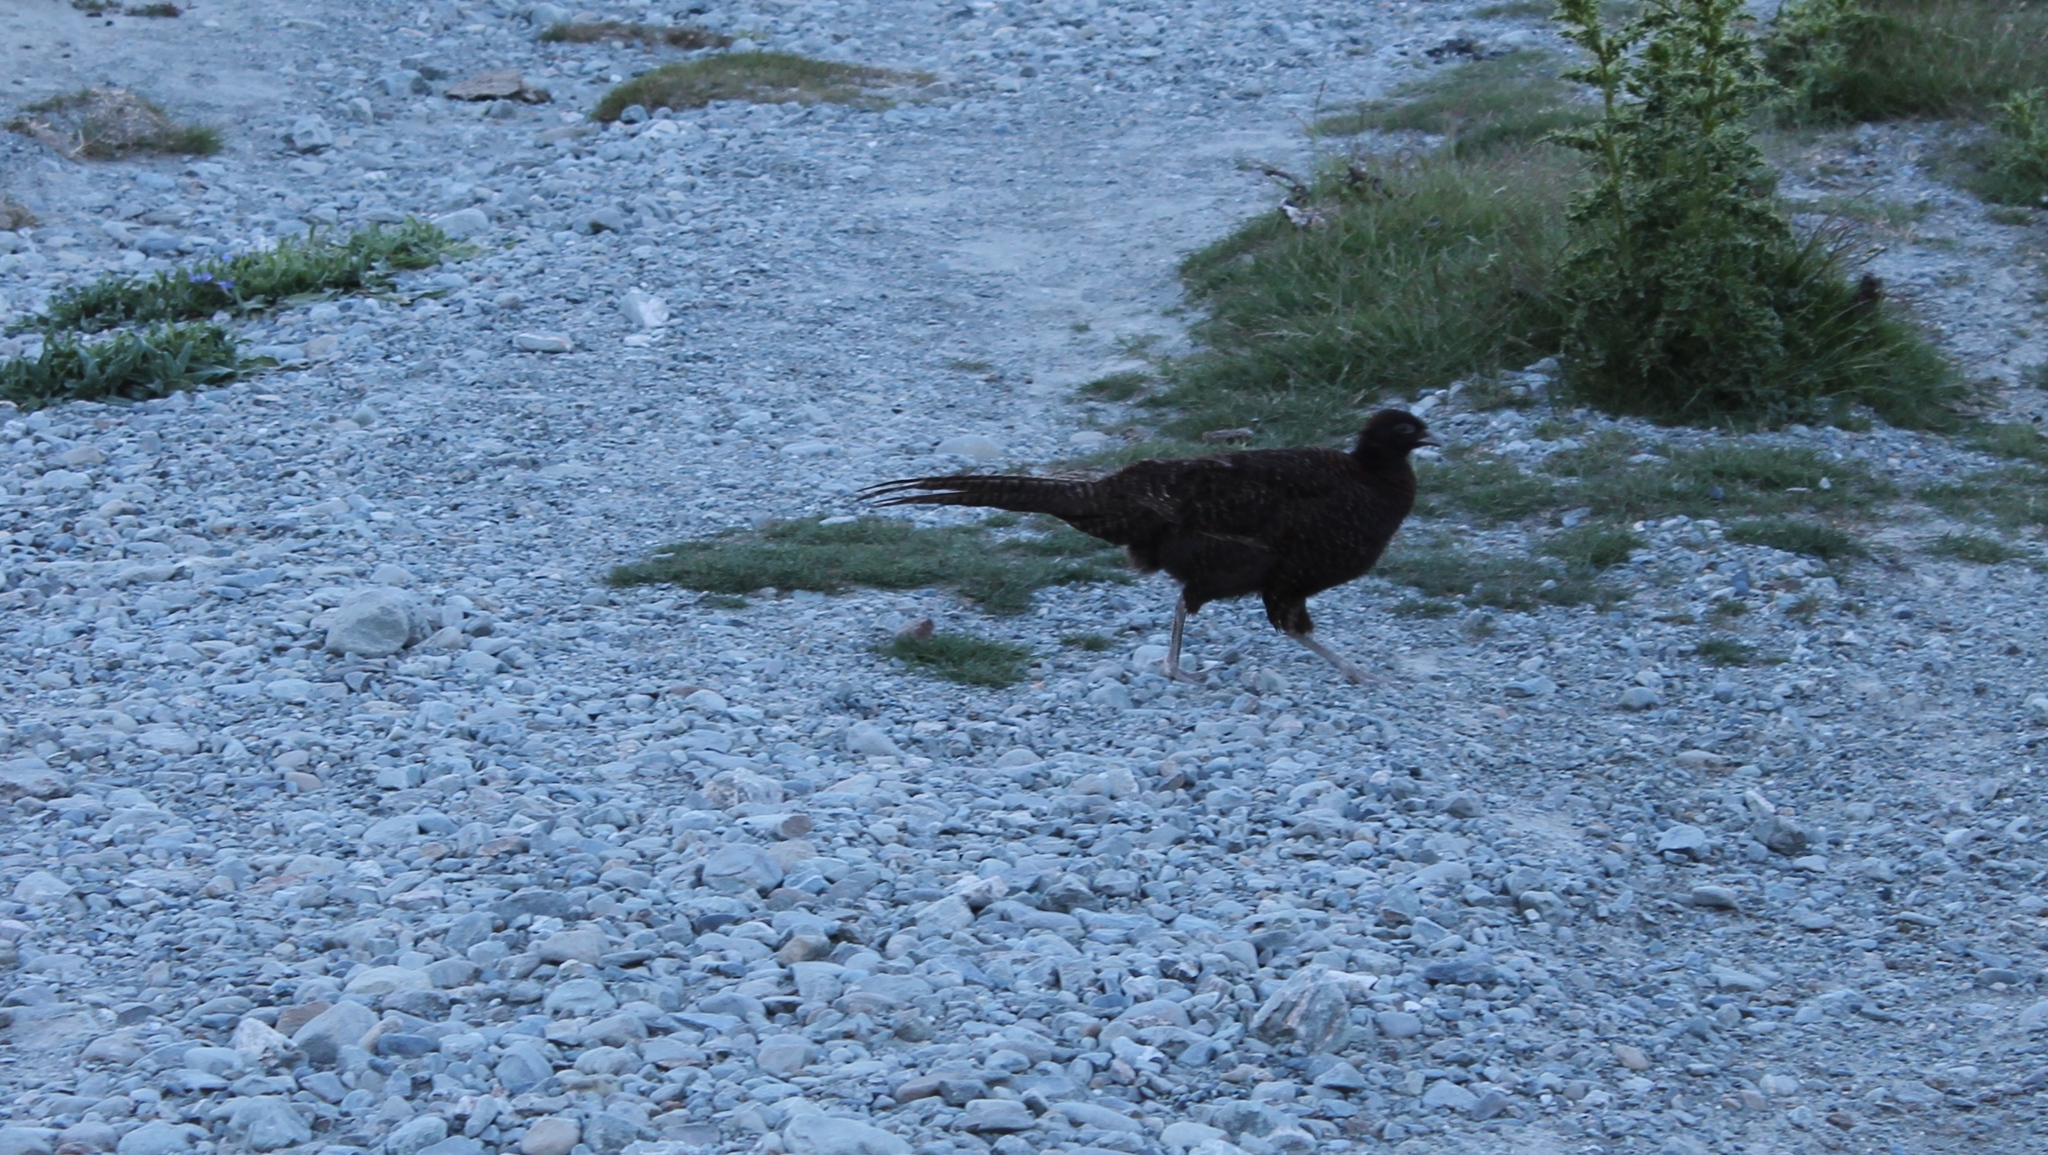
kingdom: Animalia
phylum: Chordata
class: Aves
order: Galliformes
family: Phasianidae
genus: Phasianus
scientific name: Phasianus colchicus
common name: Common pheasant
